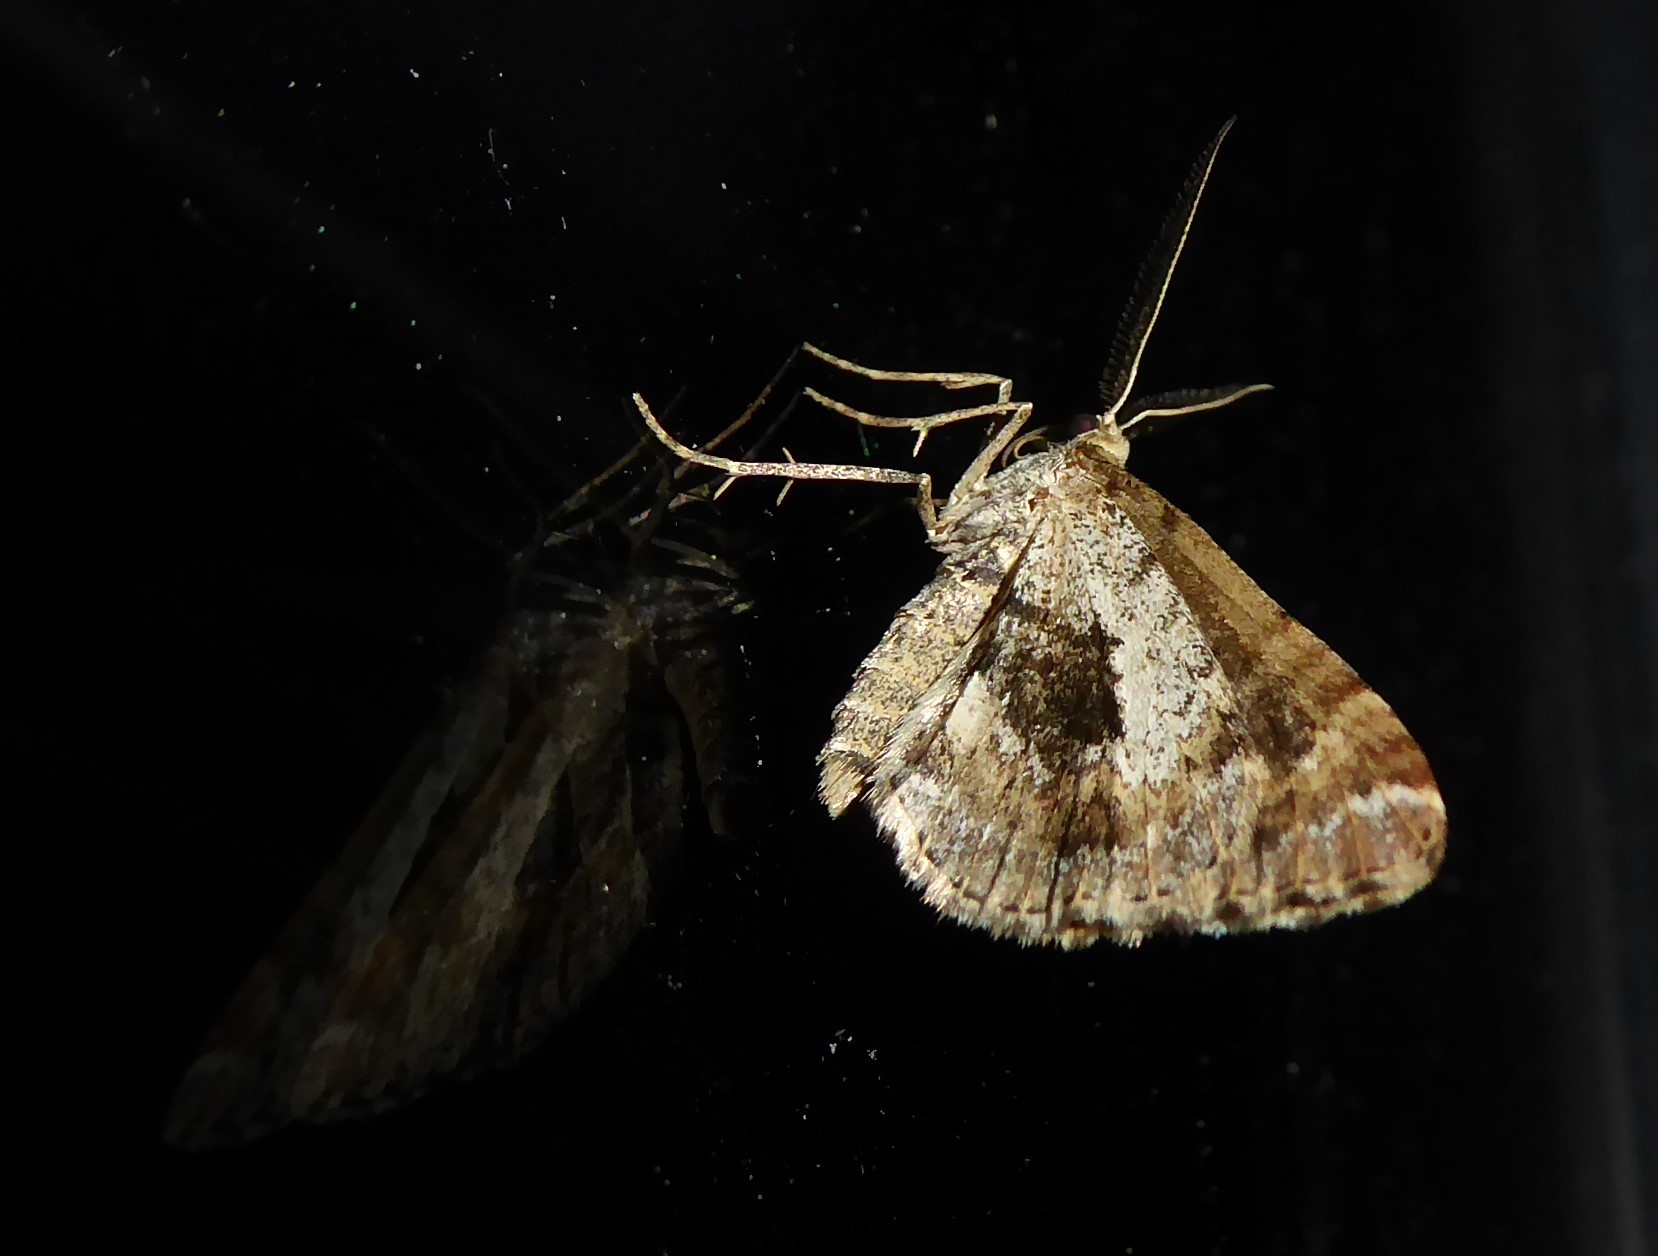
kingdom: Animalia
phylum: Arthropoda
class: Insecta
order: Lepidoptera
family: Geometridae
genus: Asaphodes
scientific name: Asaphodes aegrota
